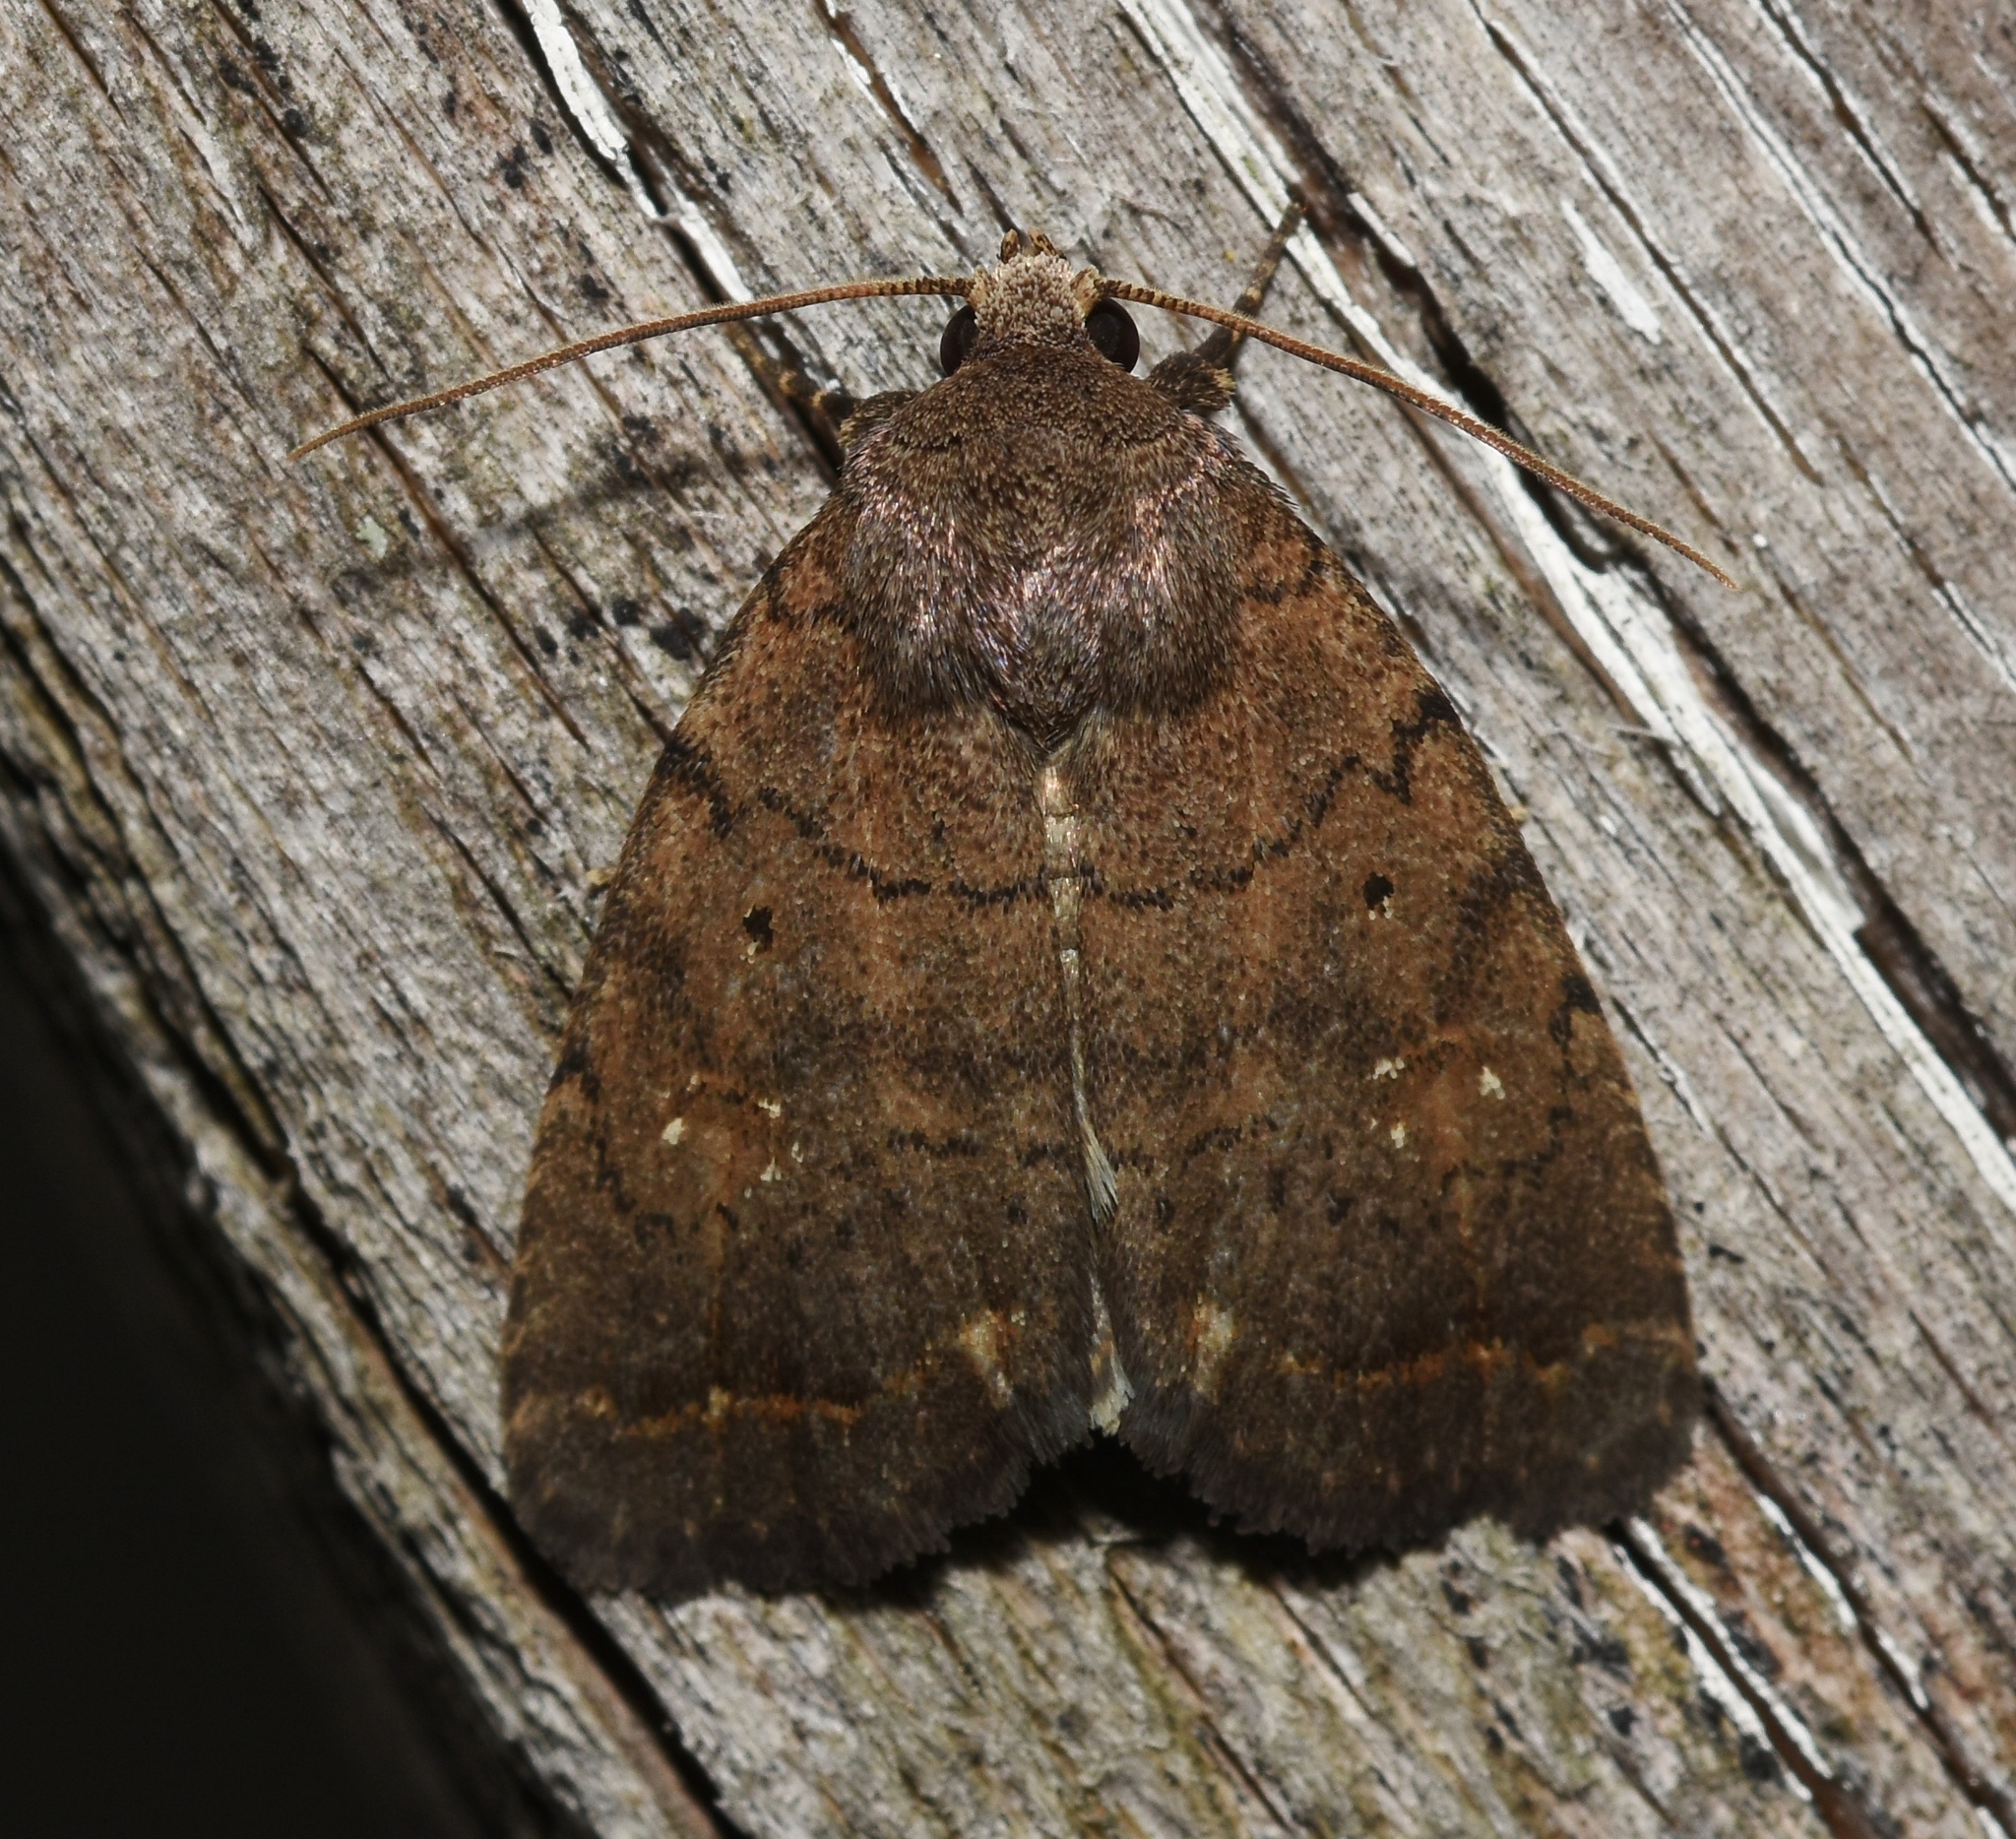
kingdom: Animalia
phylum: Arthropoda
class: Insecta
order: Lepidoptera
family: Noctuidae
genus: Athetis
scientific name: Athetis tarda
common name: Slowpoke moth
